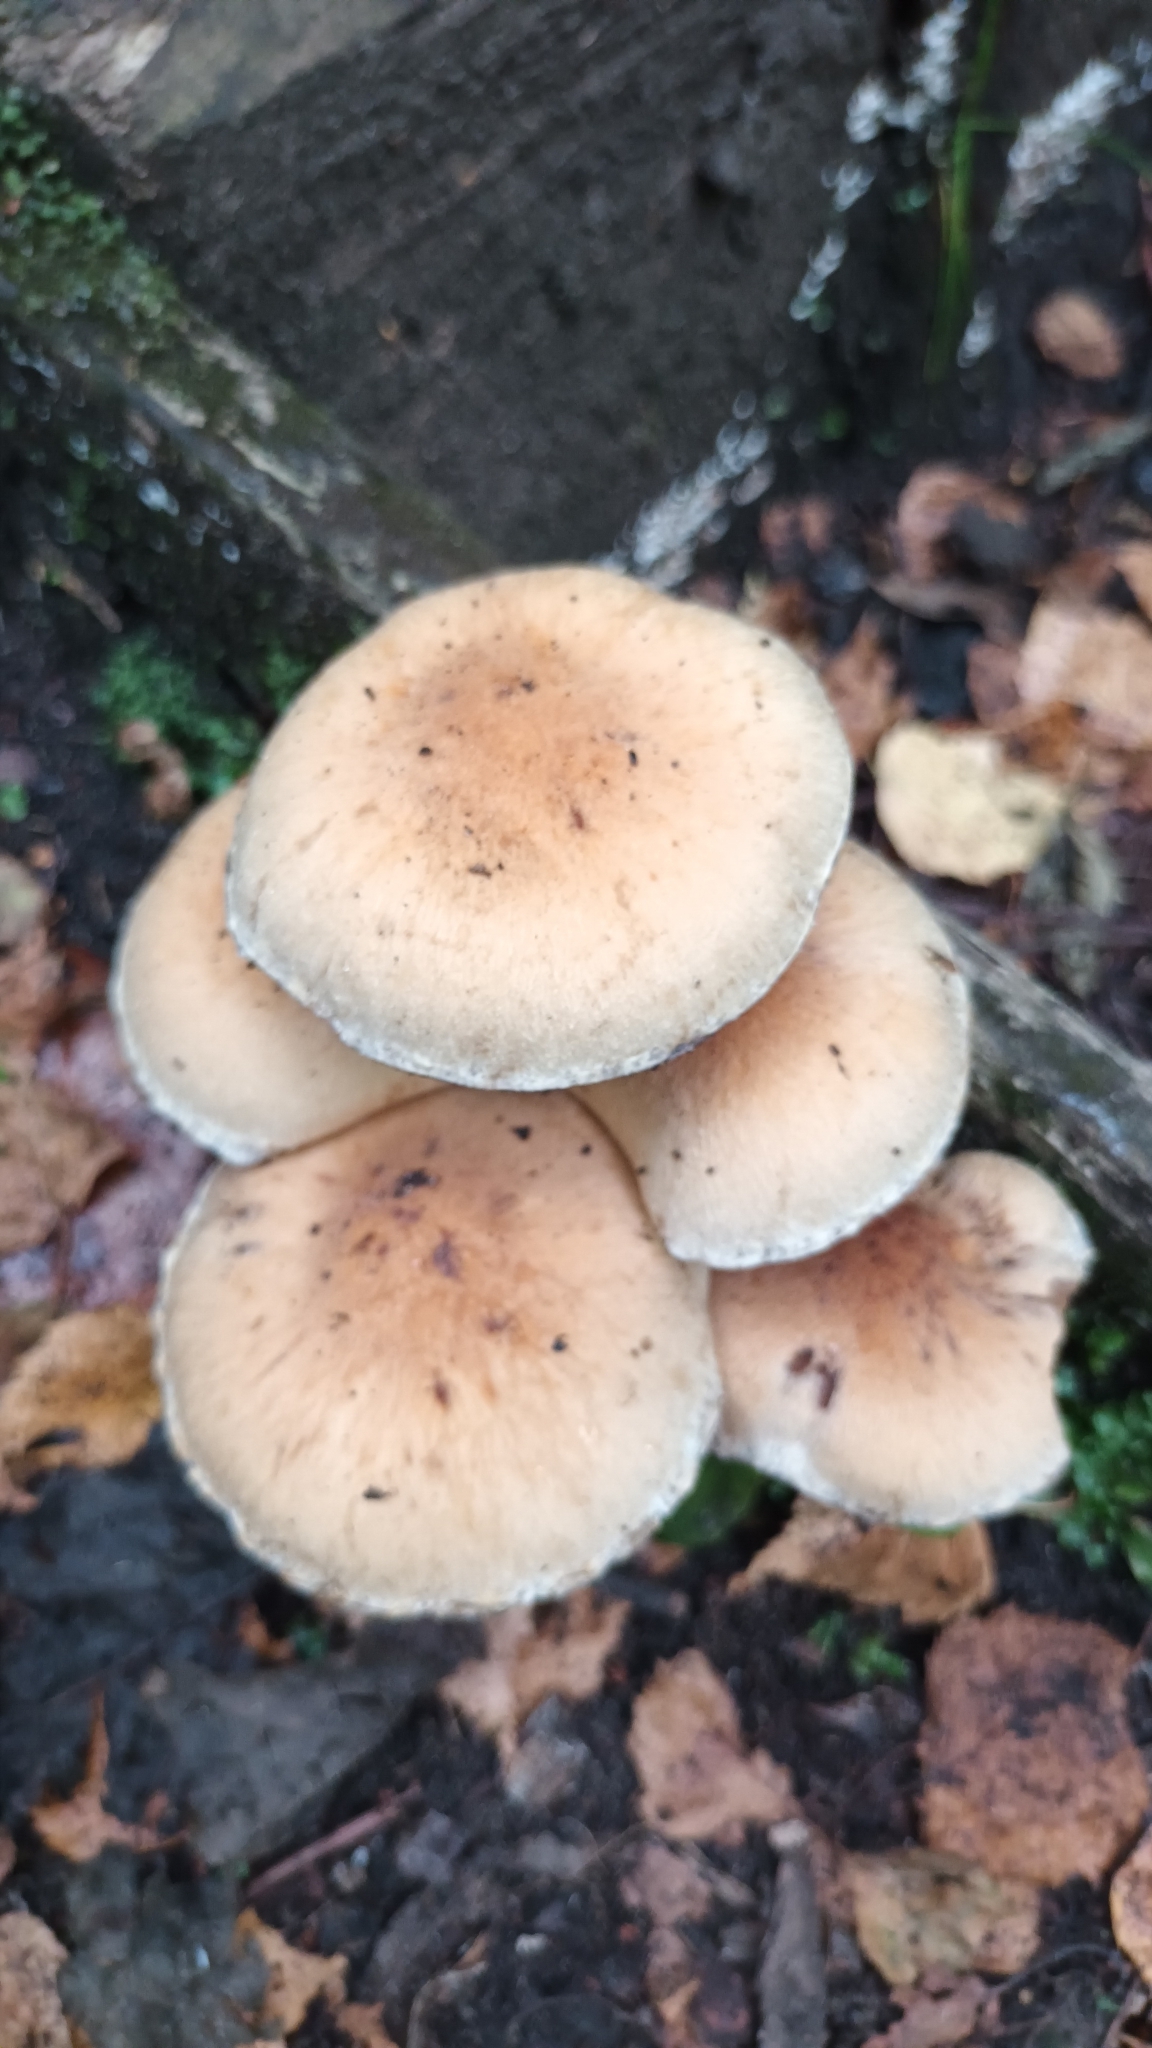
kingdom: Fungi
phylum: Basidiomycota
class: Agaricomycetes
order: Agaricales
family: Psathyrellaceae
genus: Lacrymaria
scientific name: Lacrymaria lacrymabunda
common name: Weeping widow
